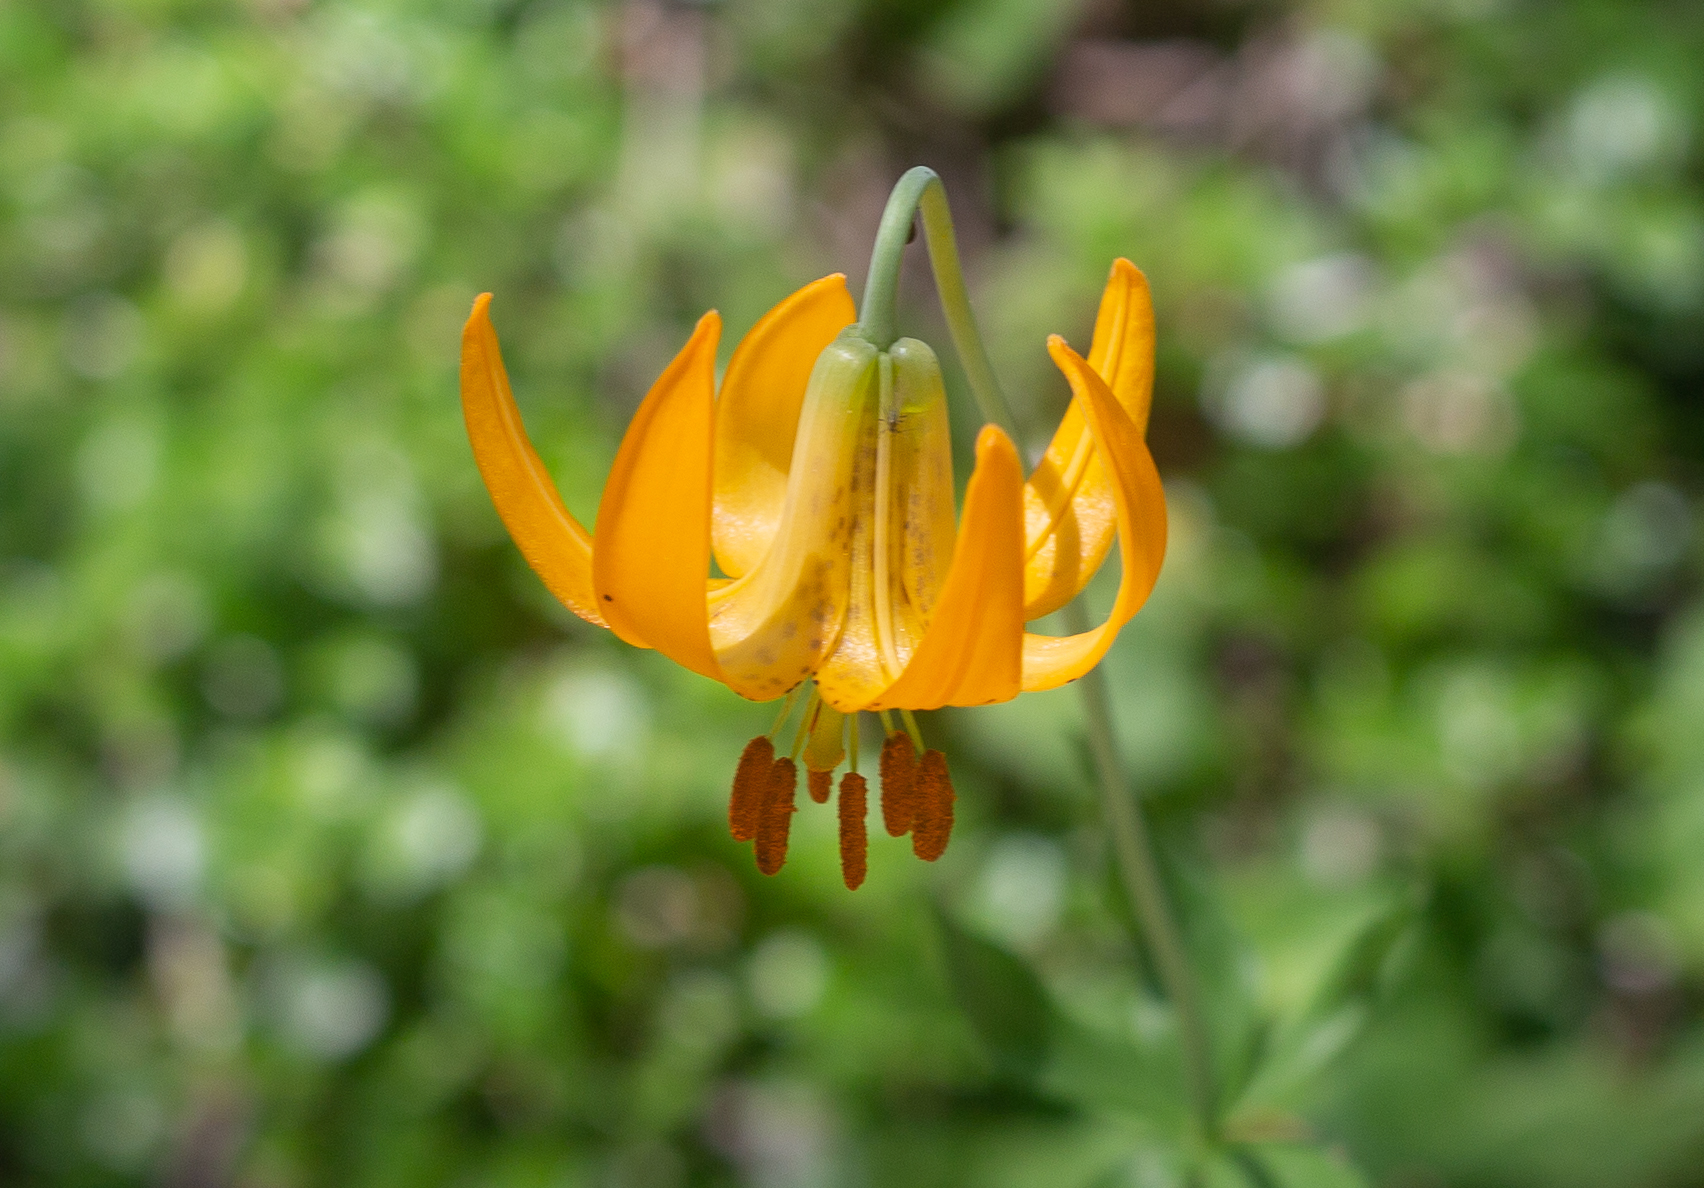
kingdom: Plantae
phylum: Tracheophyta
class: Liliopsida
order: Liliales
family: Liliaceae
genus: Lilium
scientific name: Lilium columbianum
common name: Columbia lily
